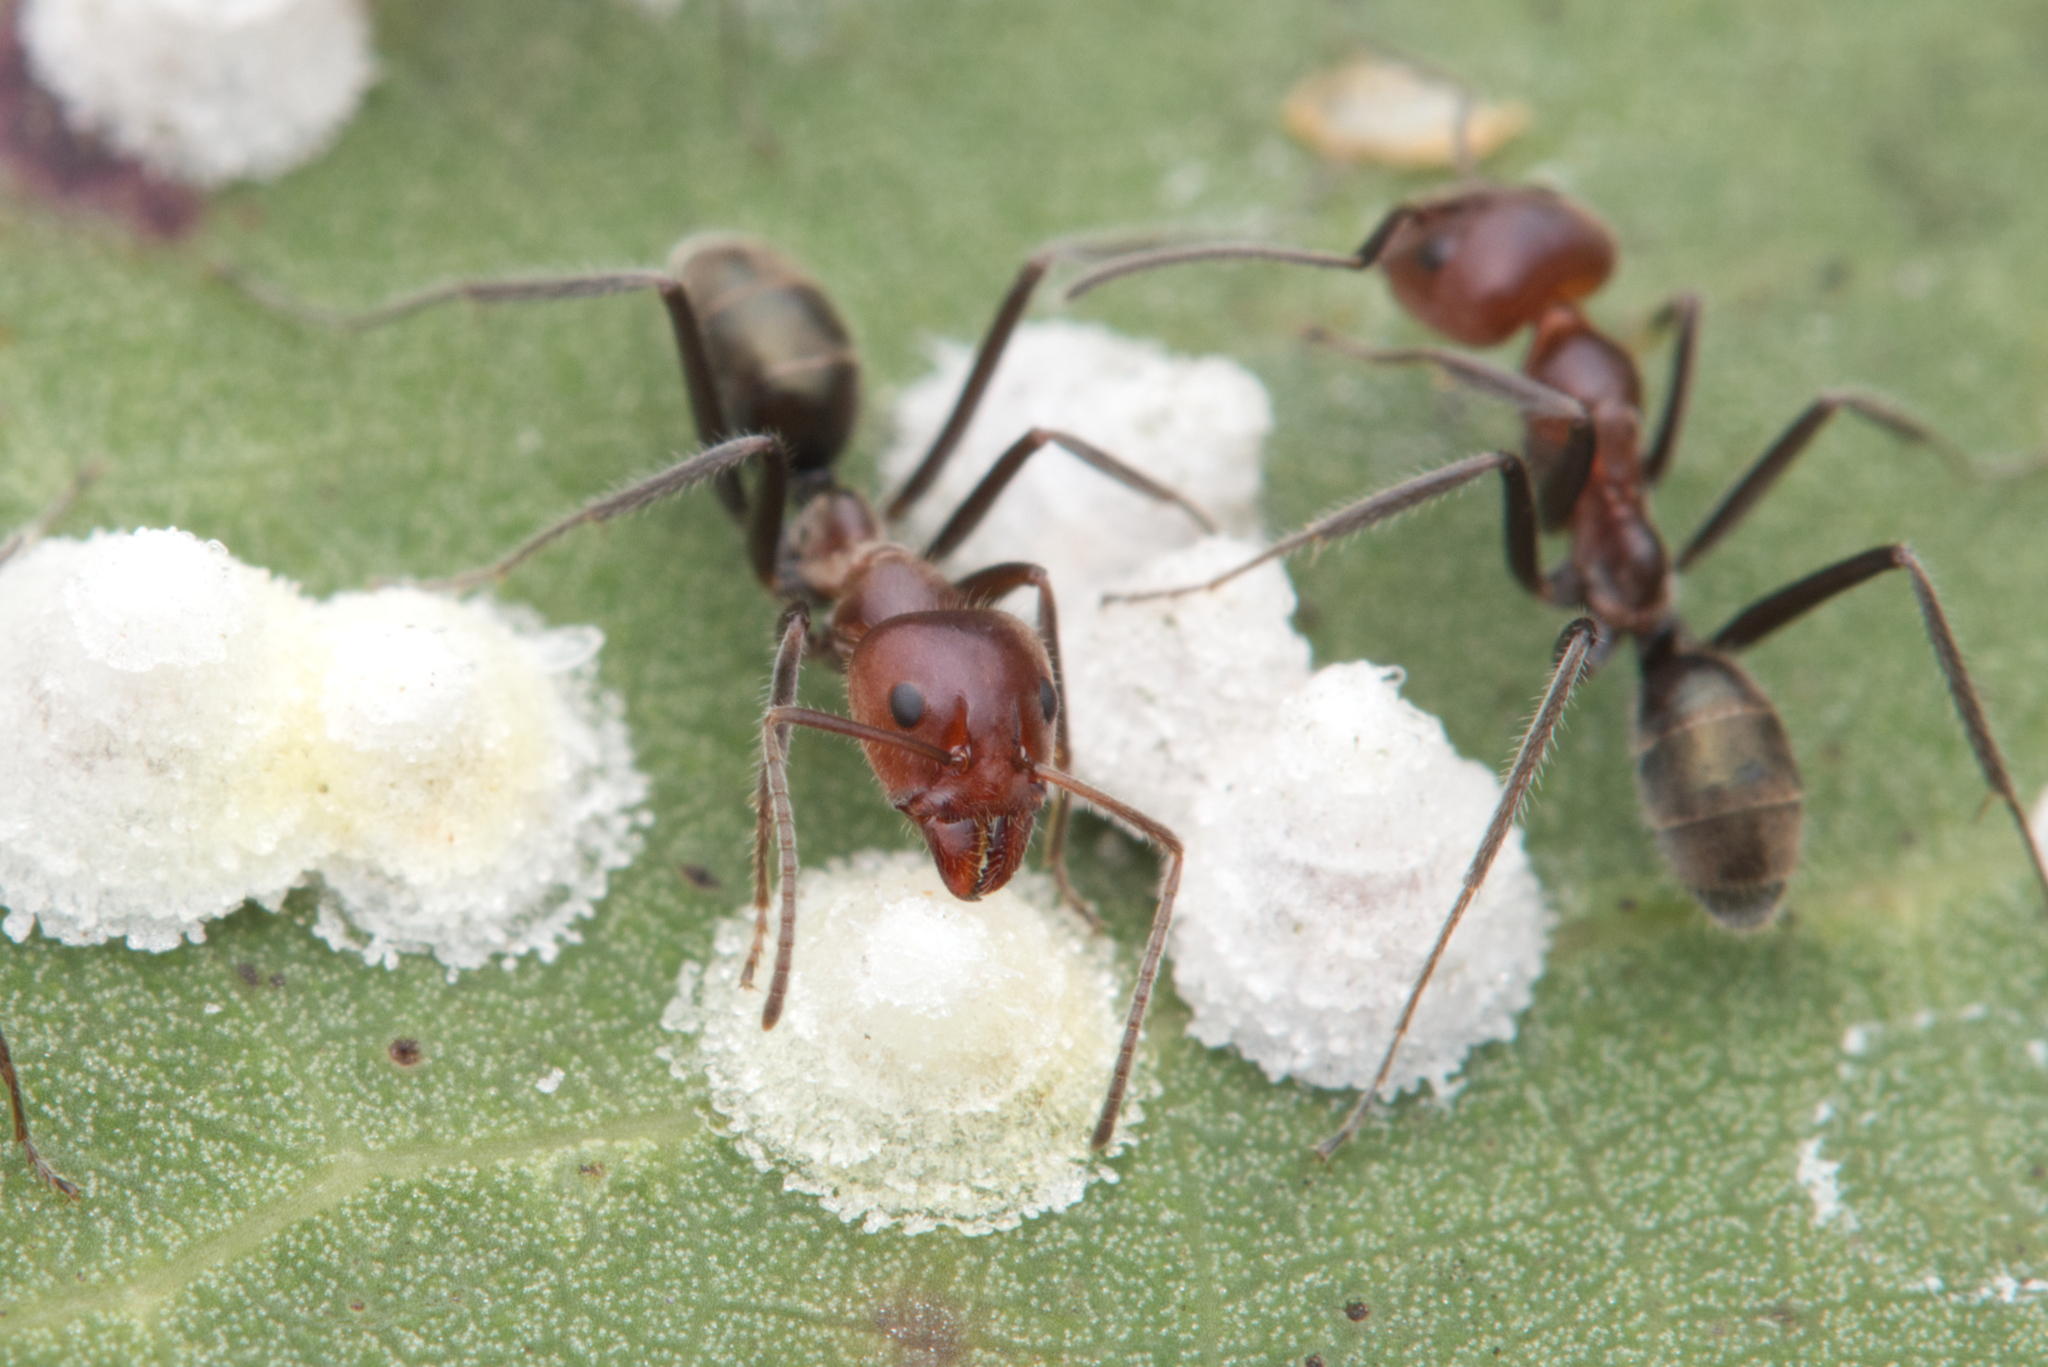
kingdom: Animalia
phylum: Arthropoda
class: Insecta
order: Hymenoptera
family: Formicidae
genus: Iridomyrmex
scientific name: Iridomyrmex discors
